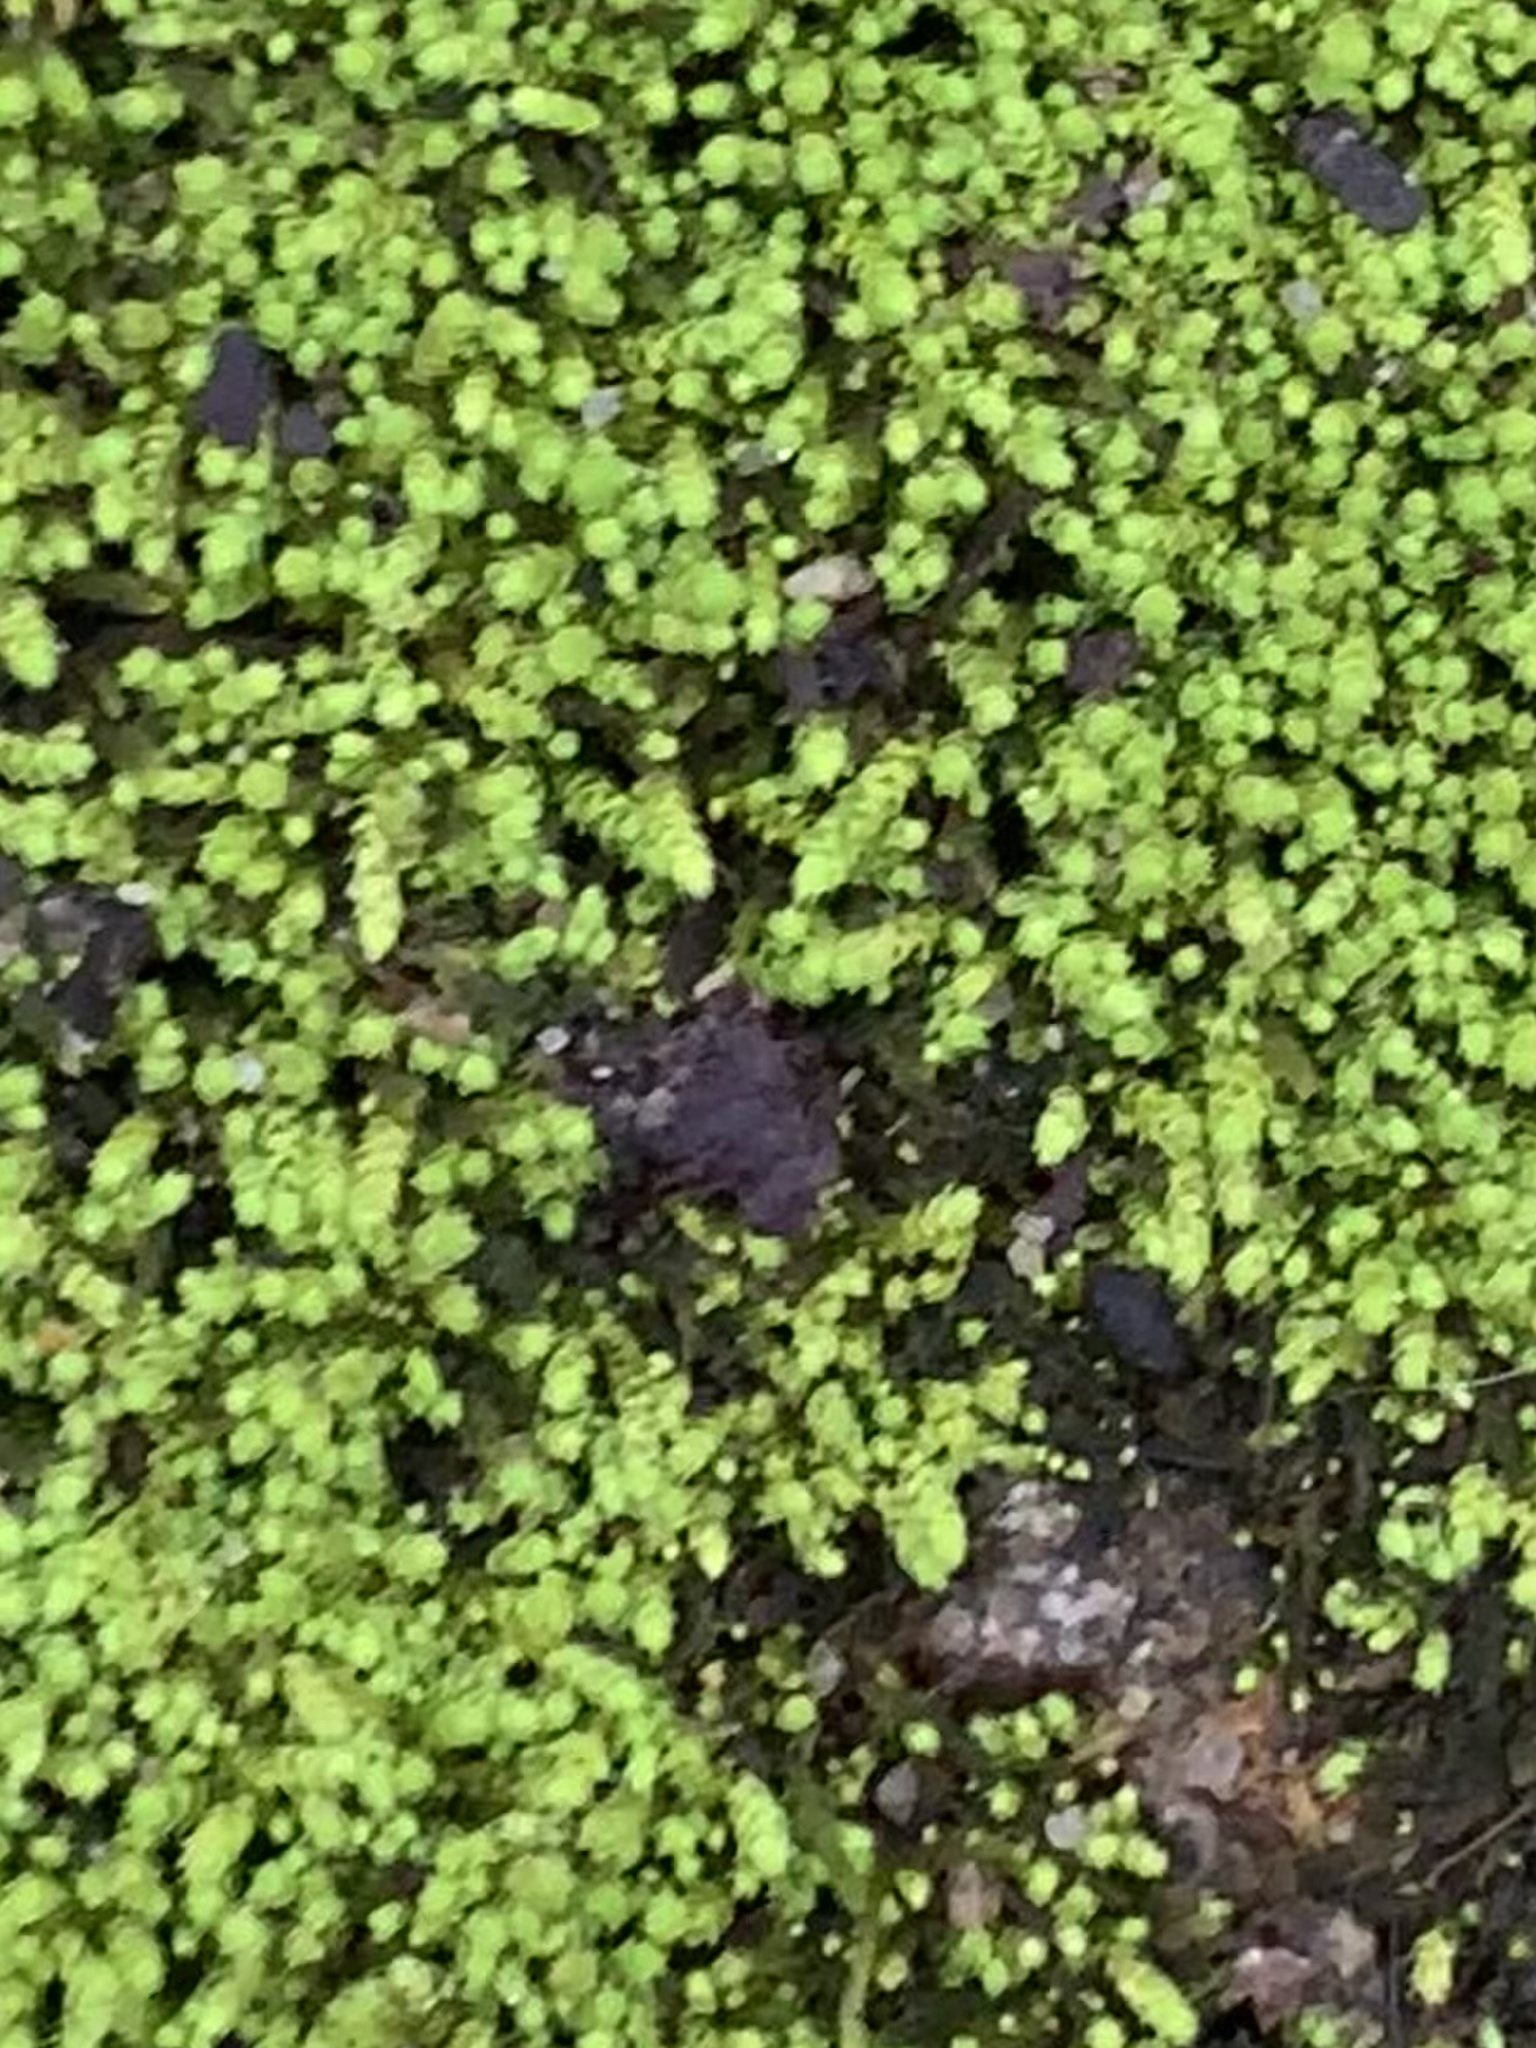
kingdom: Plantae
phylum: Bryophyta
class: Bryopsida
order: Hypnales
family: Brachytheciaceae
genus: Claopodium
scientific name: Claopodium rostratum
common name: Yellow yarn moss
